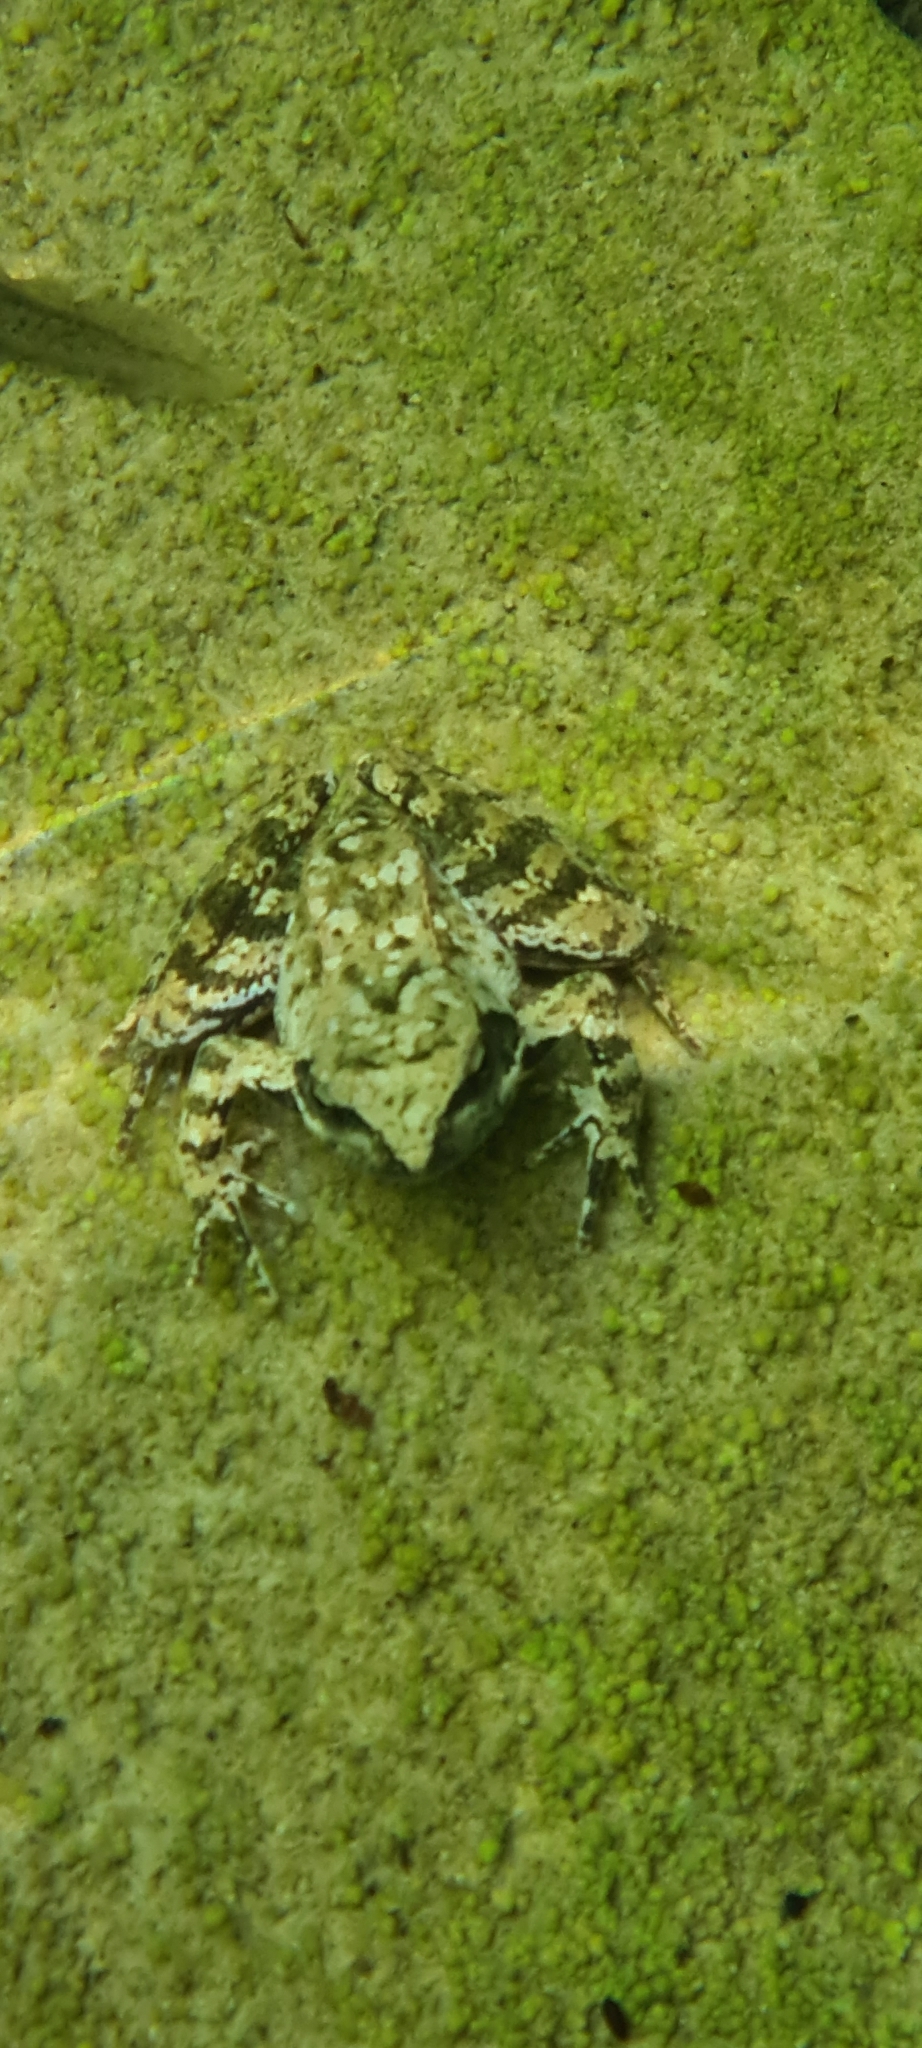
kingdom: Animalia
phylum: Chordata
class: Amphibia
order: Anura
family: Ranidae
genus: Rana
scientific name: Rana italica
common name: Italian stream frog
